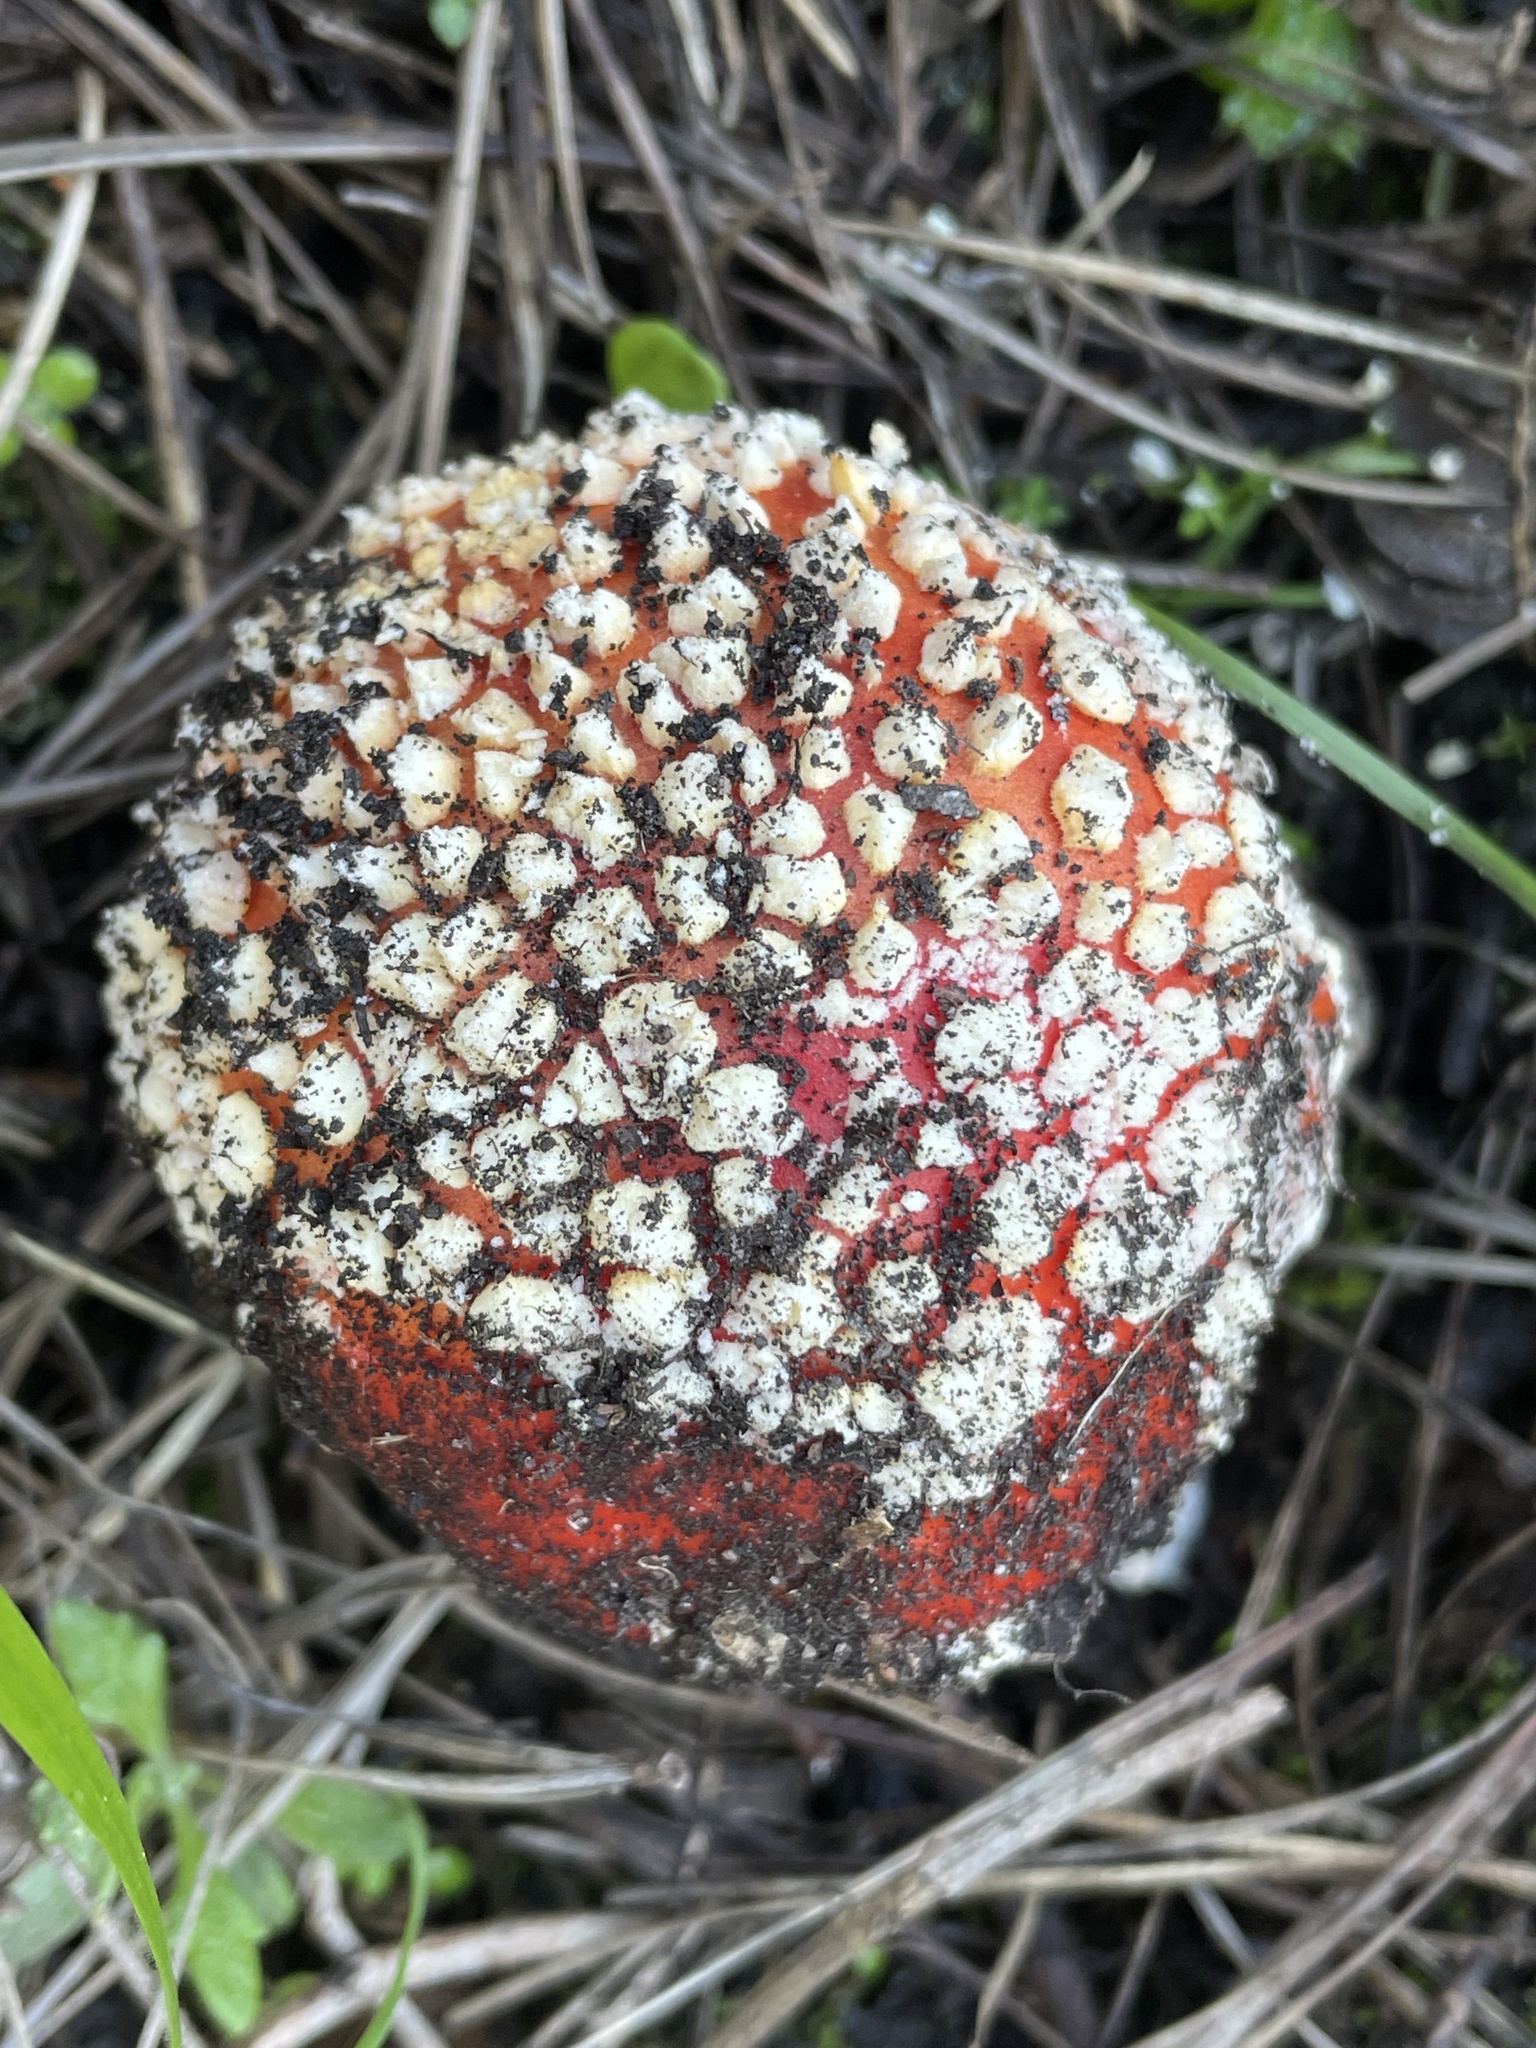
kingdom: Fungi
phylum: Basidiomycota
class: Agaricomycetes
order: Agaricales
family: Amanitaceae
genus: Amanita
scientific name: Amanita muscaria
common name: Fly agaric
